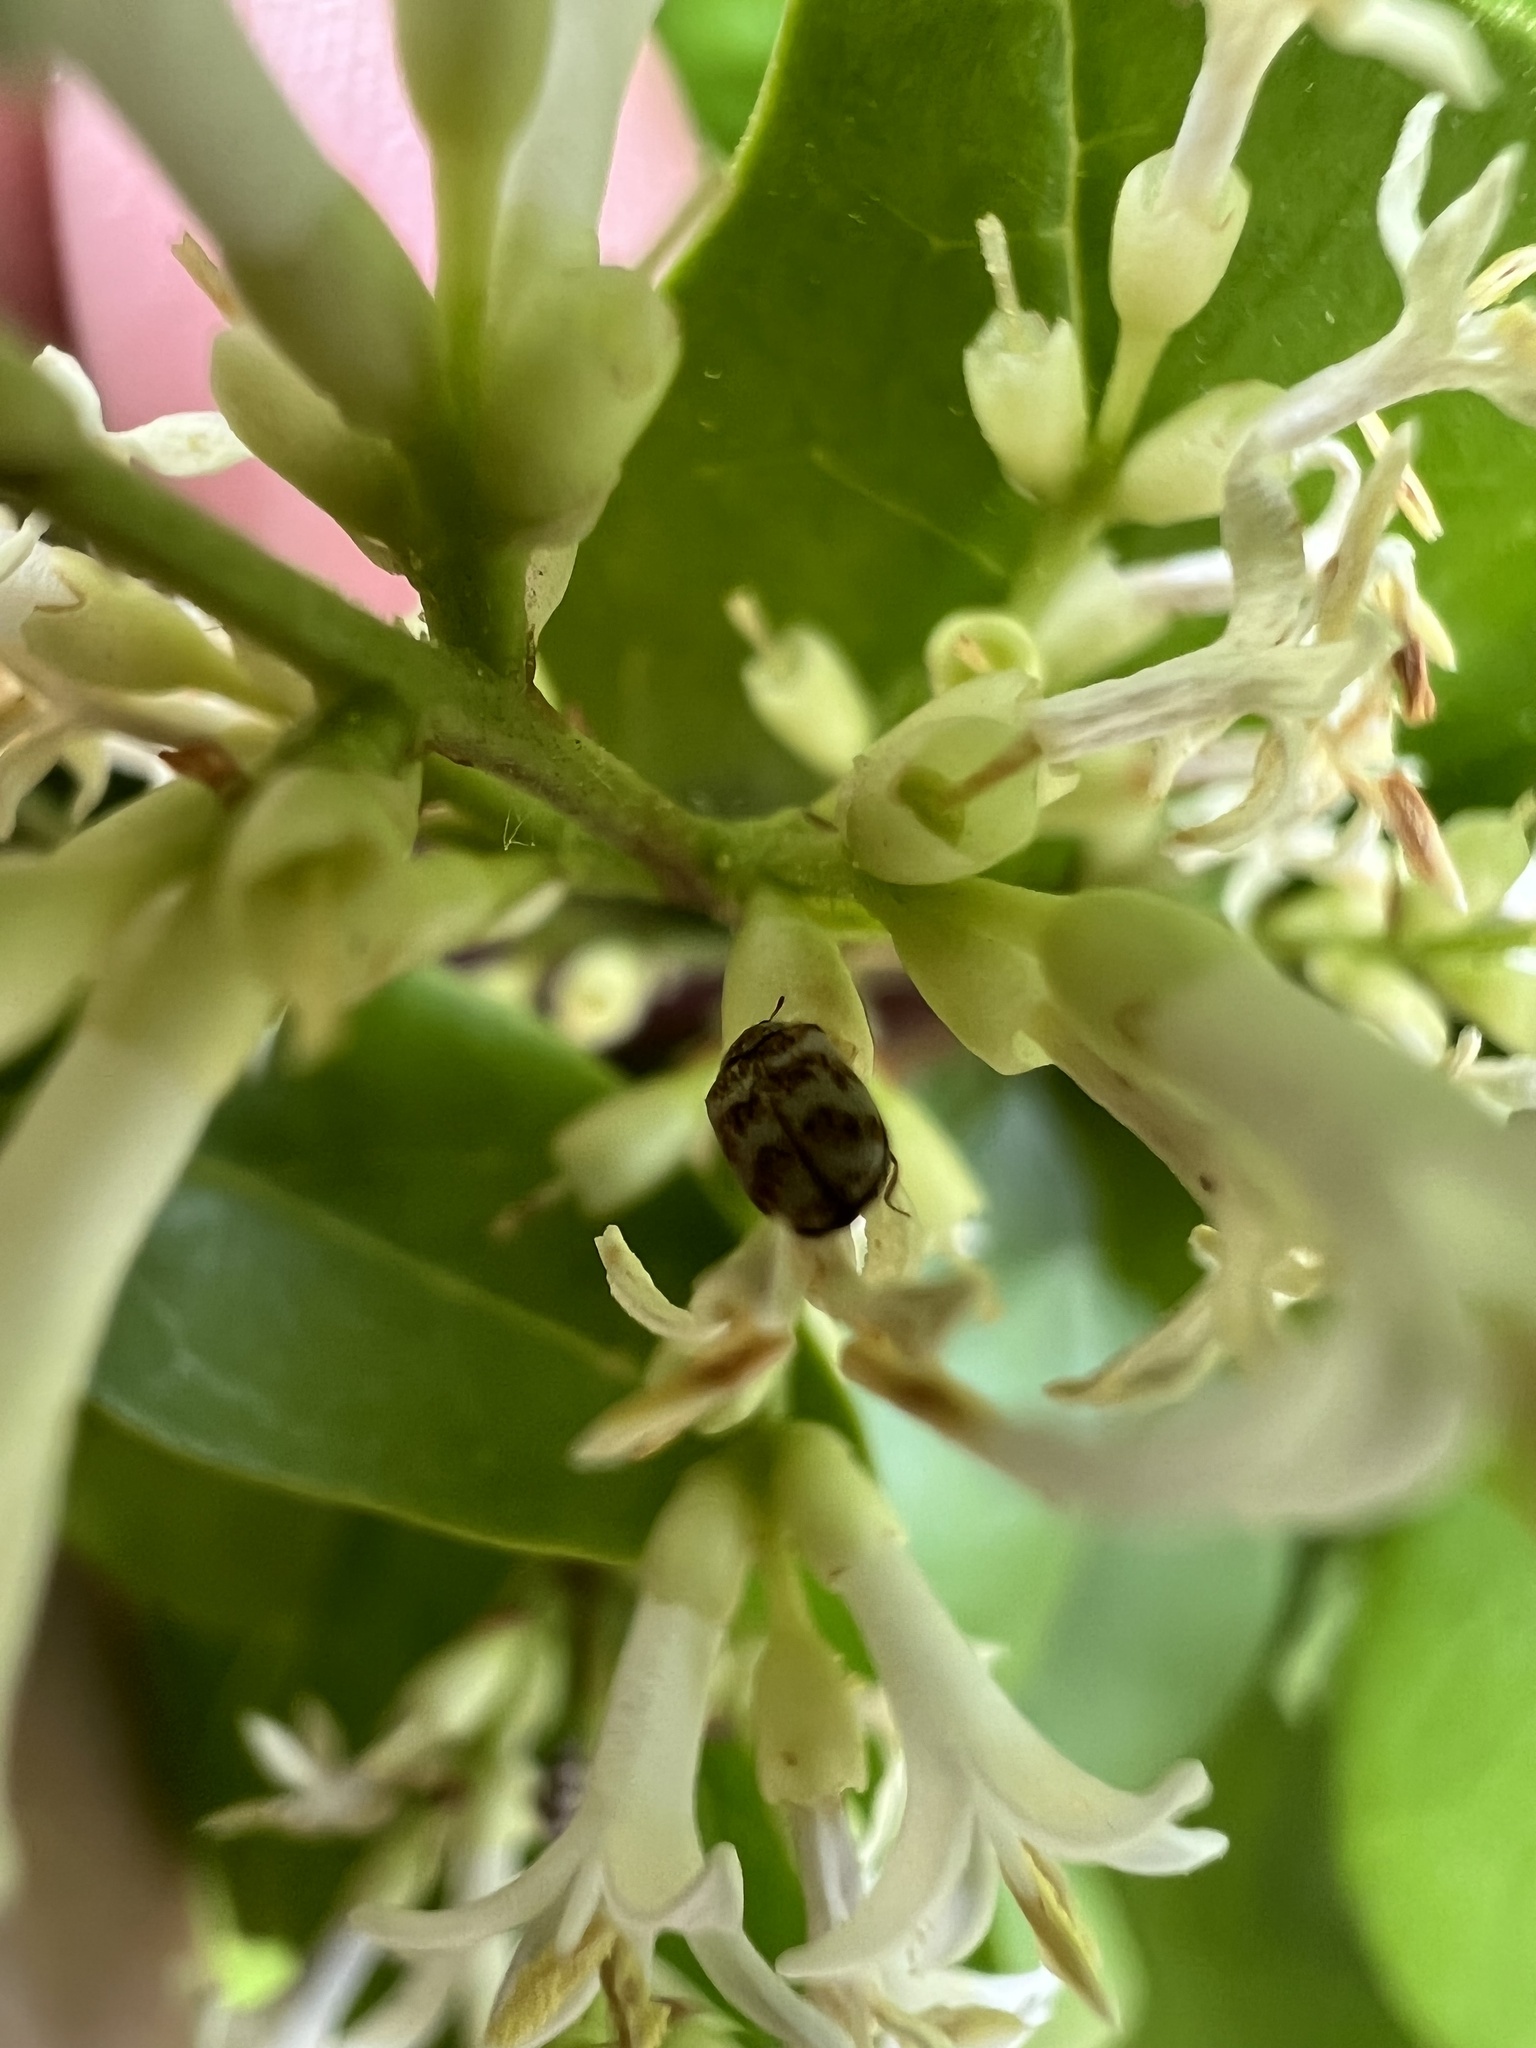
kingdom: Animalia
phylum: Arthropoda
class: Insecta
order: Coleoptera
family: Dermestidae
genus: Anthrenus
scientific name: Anthrenus coloratus
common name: Auger beetle
